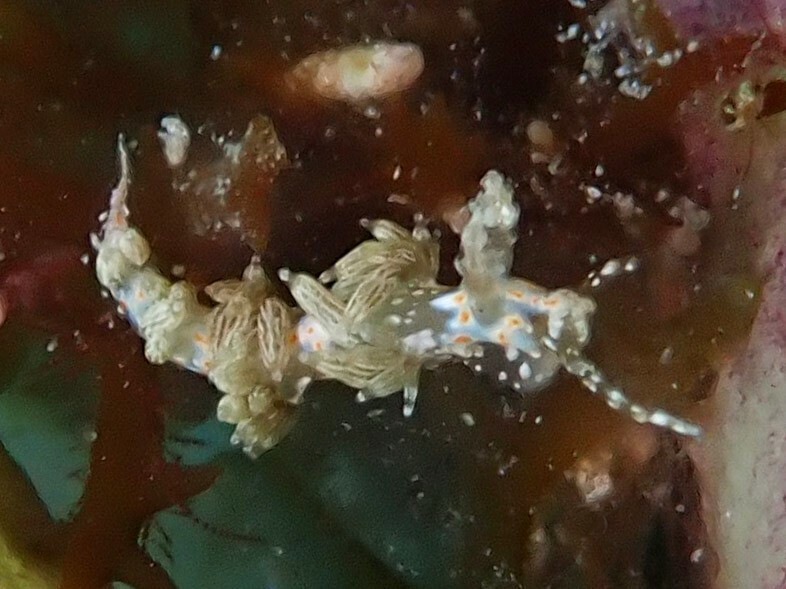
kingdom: Animalia
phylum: Mollusca
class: Gastropoda
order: Nudibranchia
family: Myrrhinidae
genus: Nanuca
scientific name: Nanuca sebastiani
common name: Orange-spotted nanuca
